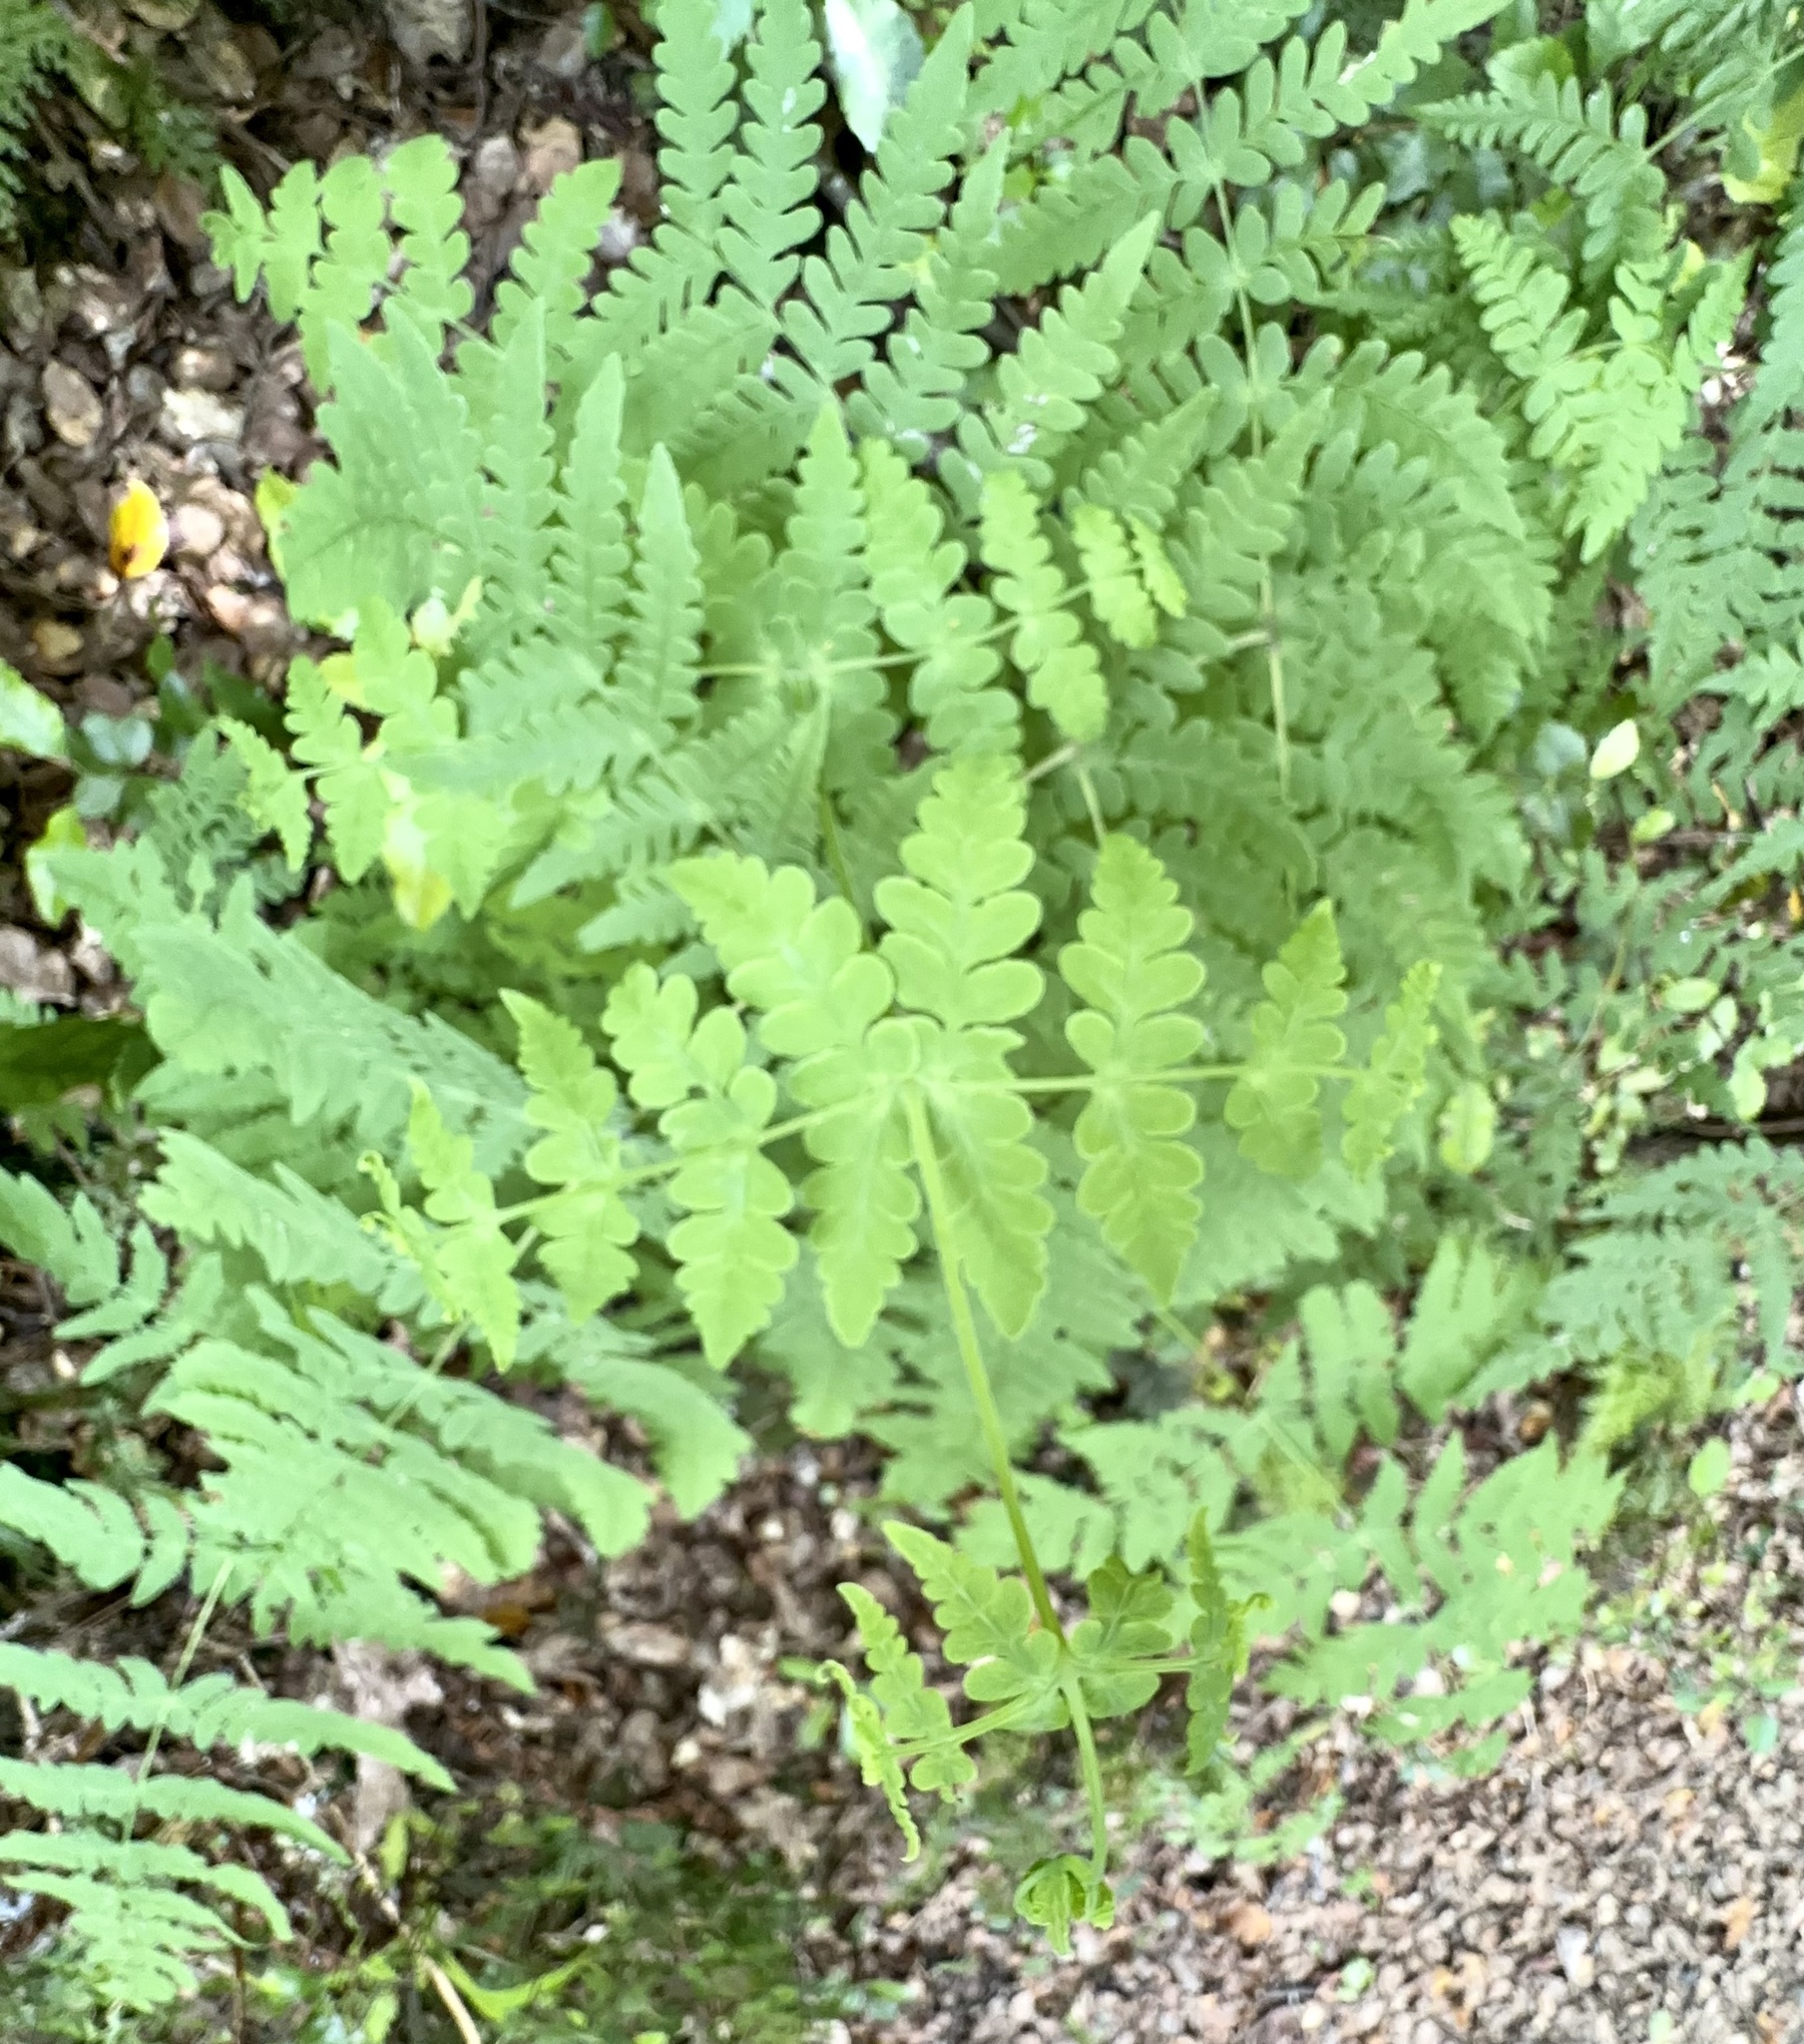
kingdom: Plantae
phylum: Tracheophyta
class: Polypodiopsida
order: Polypodiales
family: Dennstaedtiaceae
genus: Histiopteris
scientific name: Histiopteris incisa
